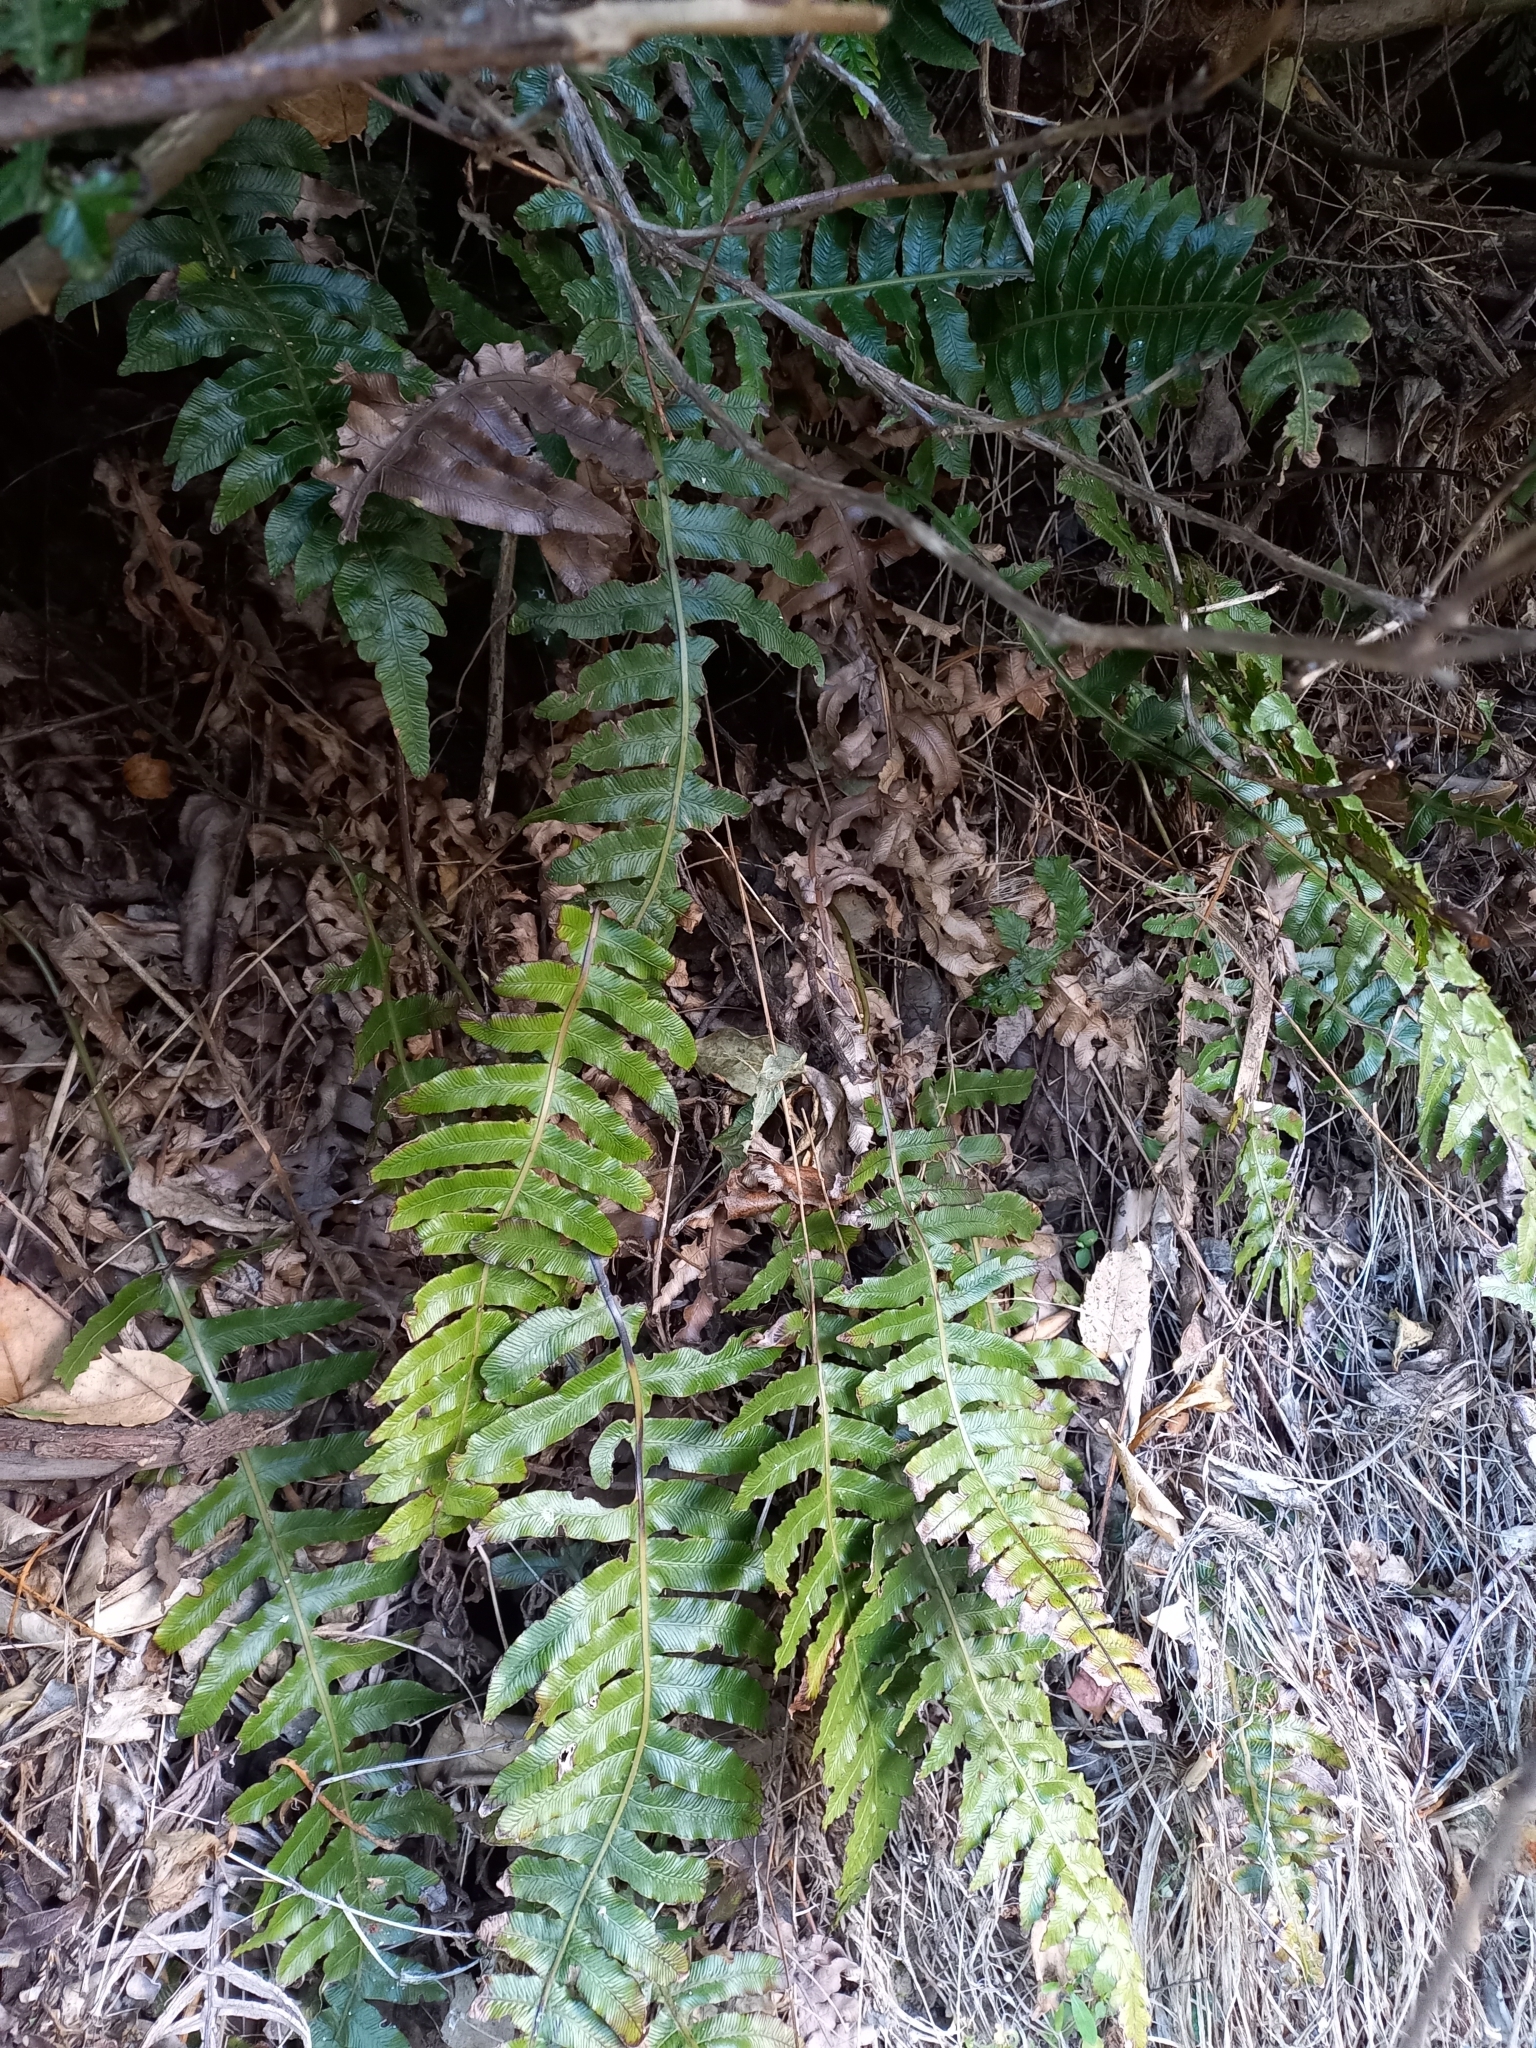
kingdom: Plantae
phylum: Tracheophyta
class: Polypodiopsida
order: Polypodiales
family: Blechnaceae
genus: Cranfillia
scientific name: Cranfillia deltoides
